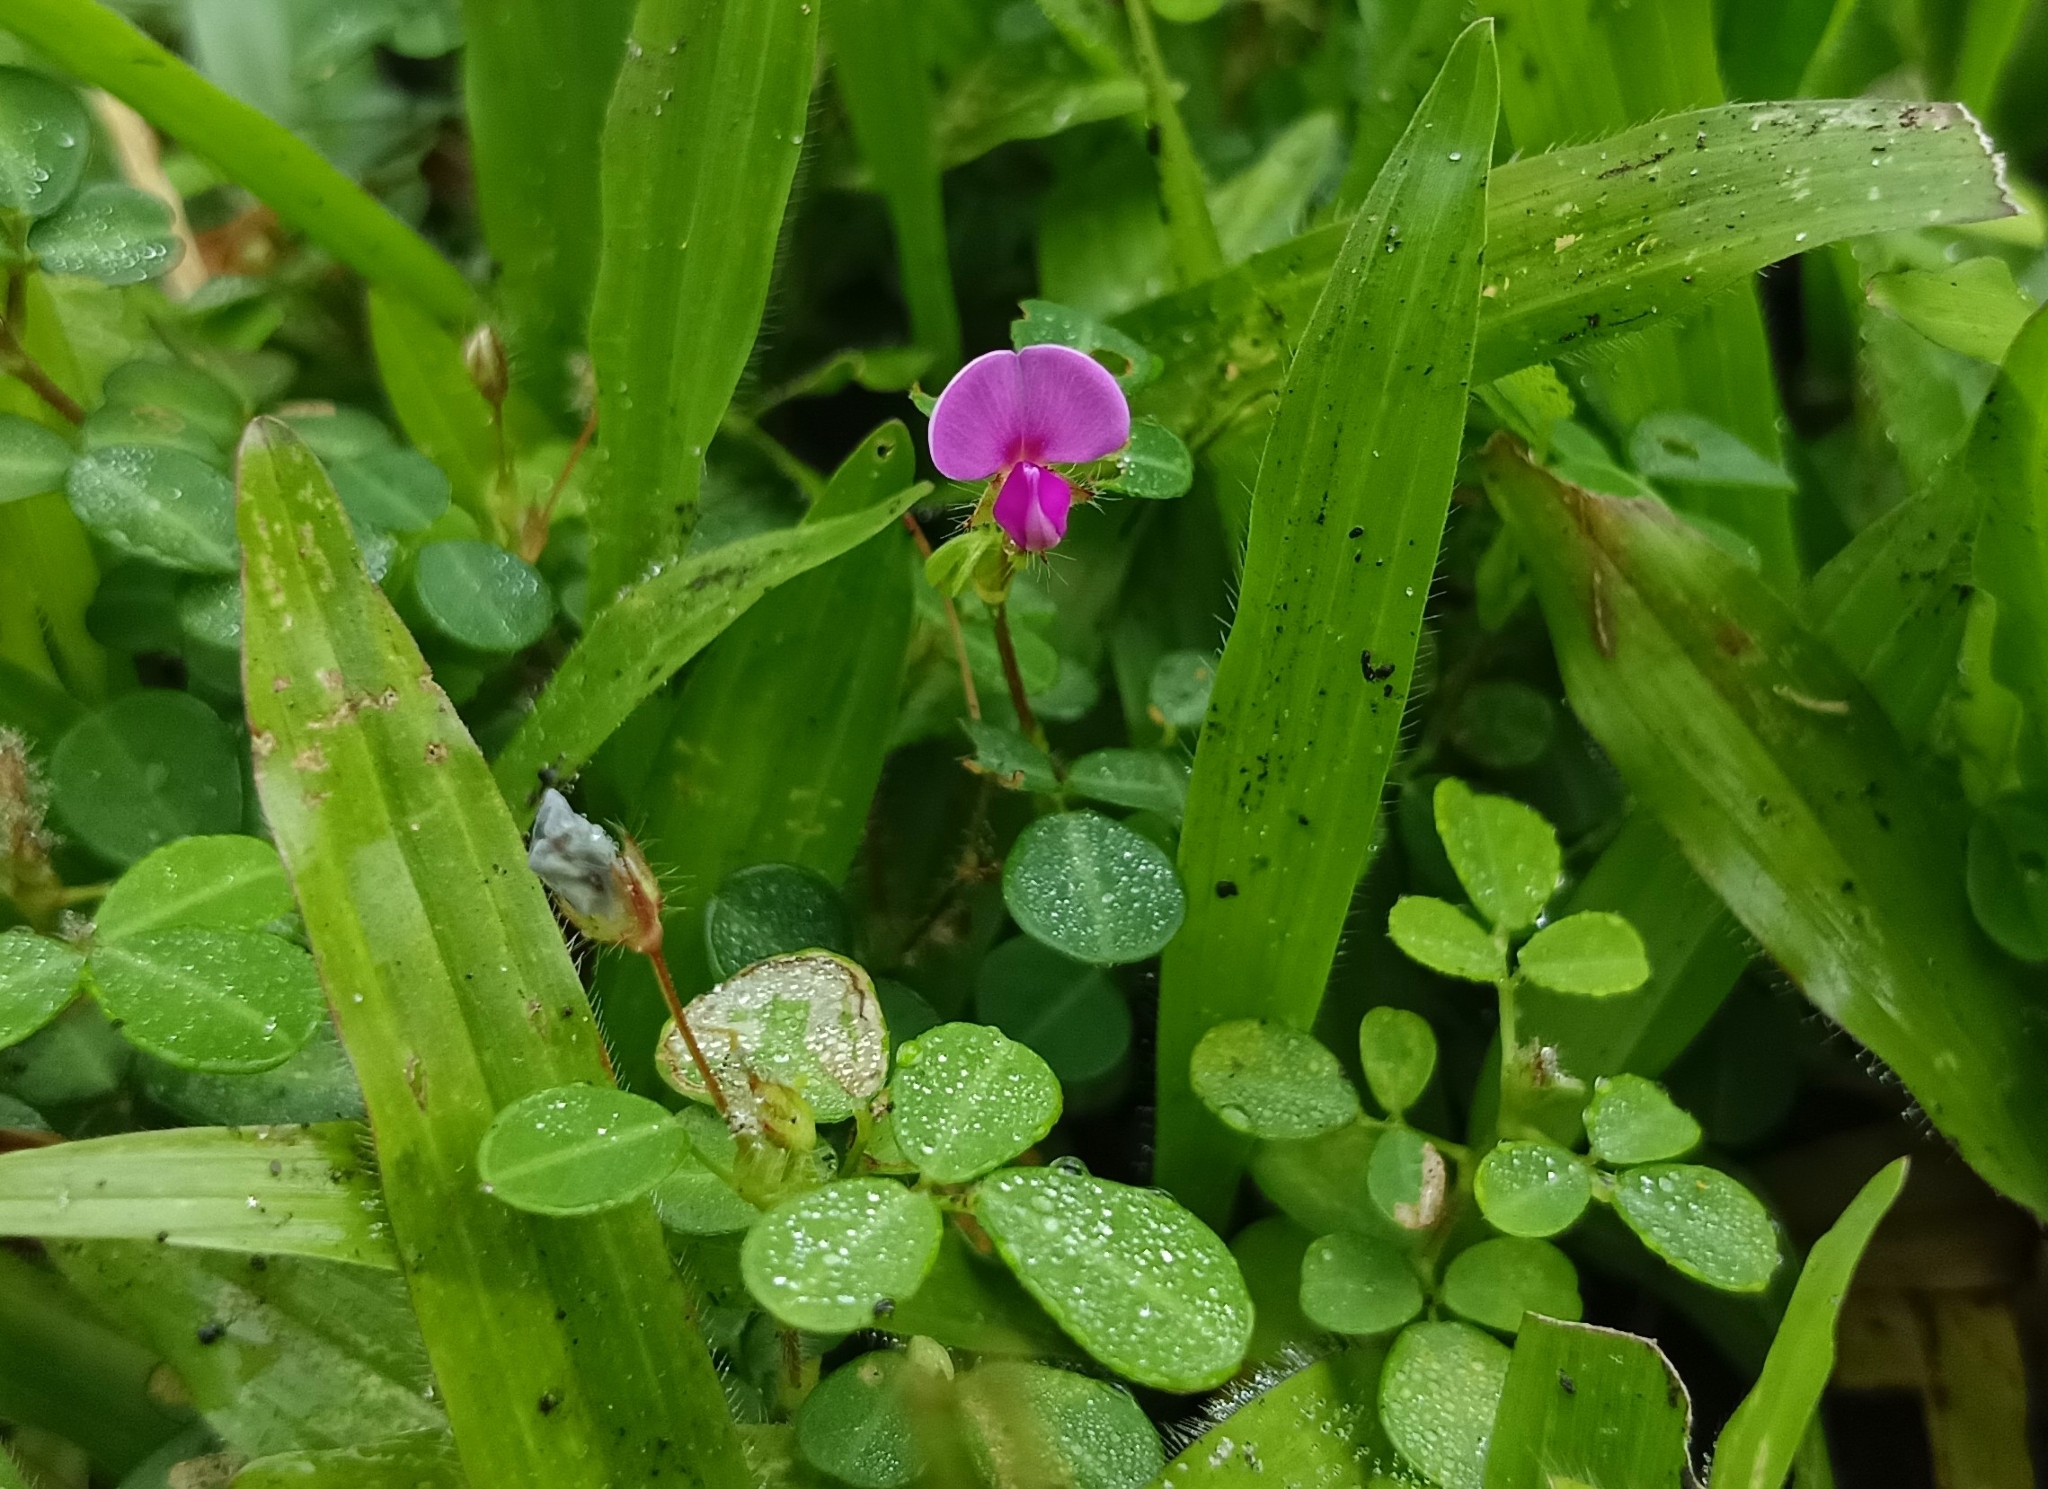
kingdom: Plantae
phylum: Tracheophyta
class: Magnoliopsida
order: Fabales
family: Fabaceae
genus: Grona
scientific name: Grona triflora
